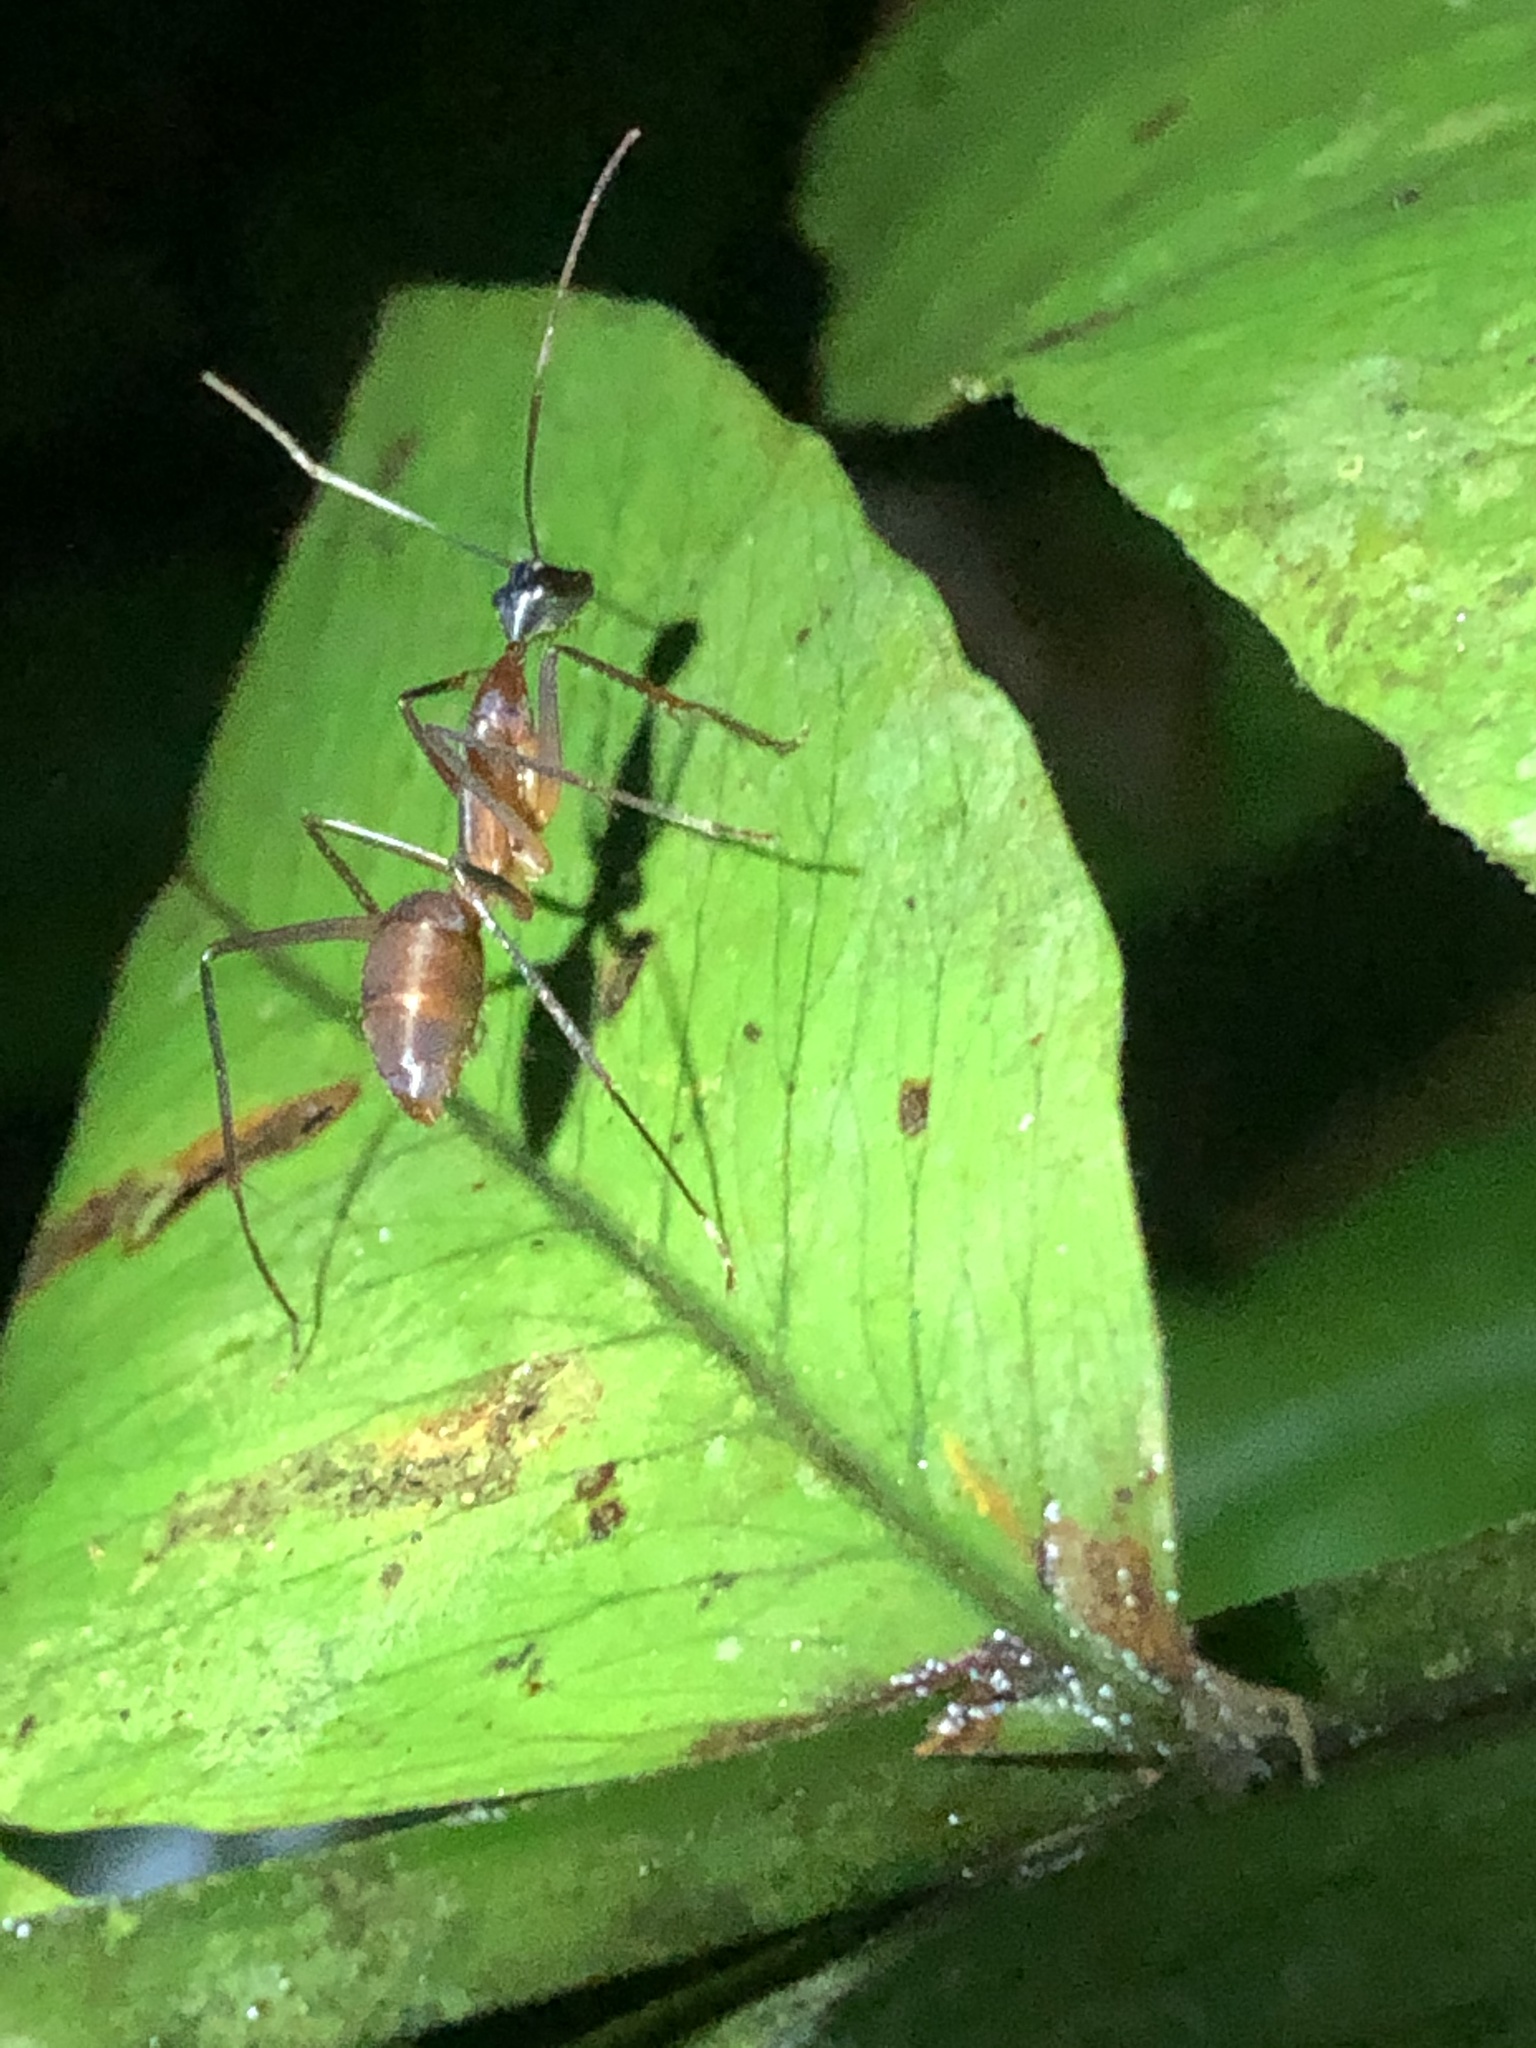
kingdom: Animalia
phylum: Arthropoda
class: Insecta
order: Hymenoptera
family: Formicidae
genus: Camponotus
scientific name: Camponotus ager
